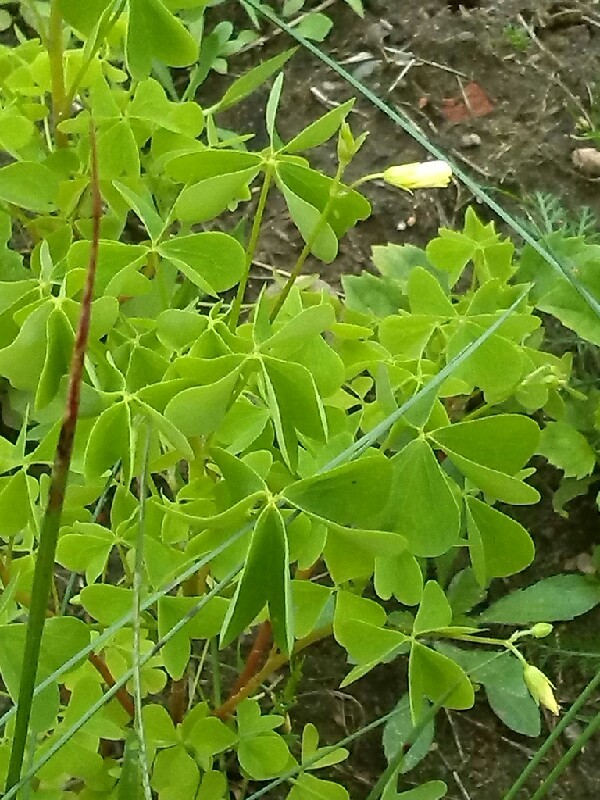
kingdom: Plantae
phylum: Tracheophyta
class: Magnoliopsida
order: Oxalidales
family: Oxalidaceae
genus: Oxalis
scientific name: Oxalis stricta
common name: Upright yellow-sorrel
